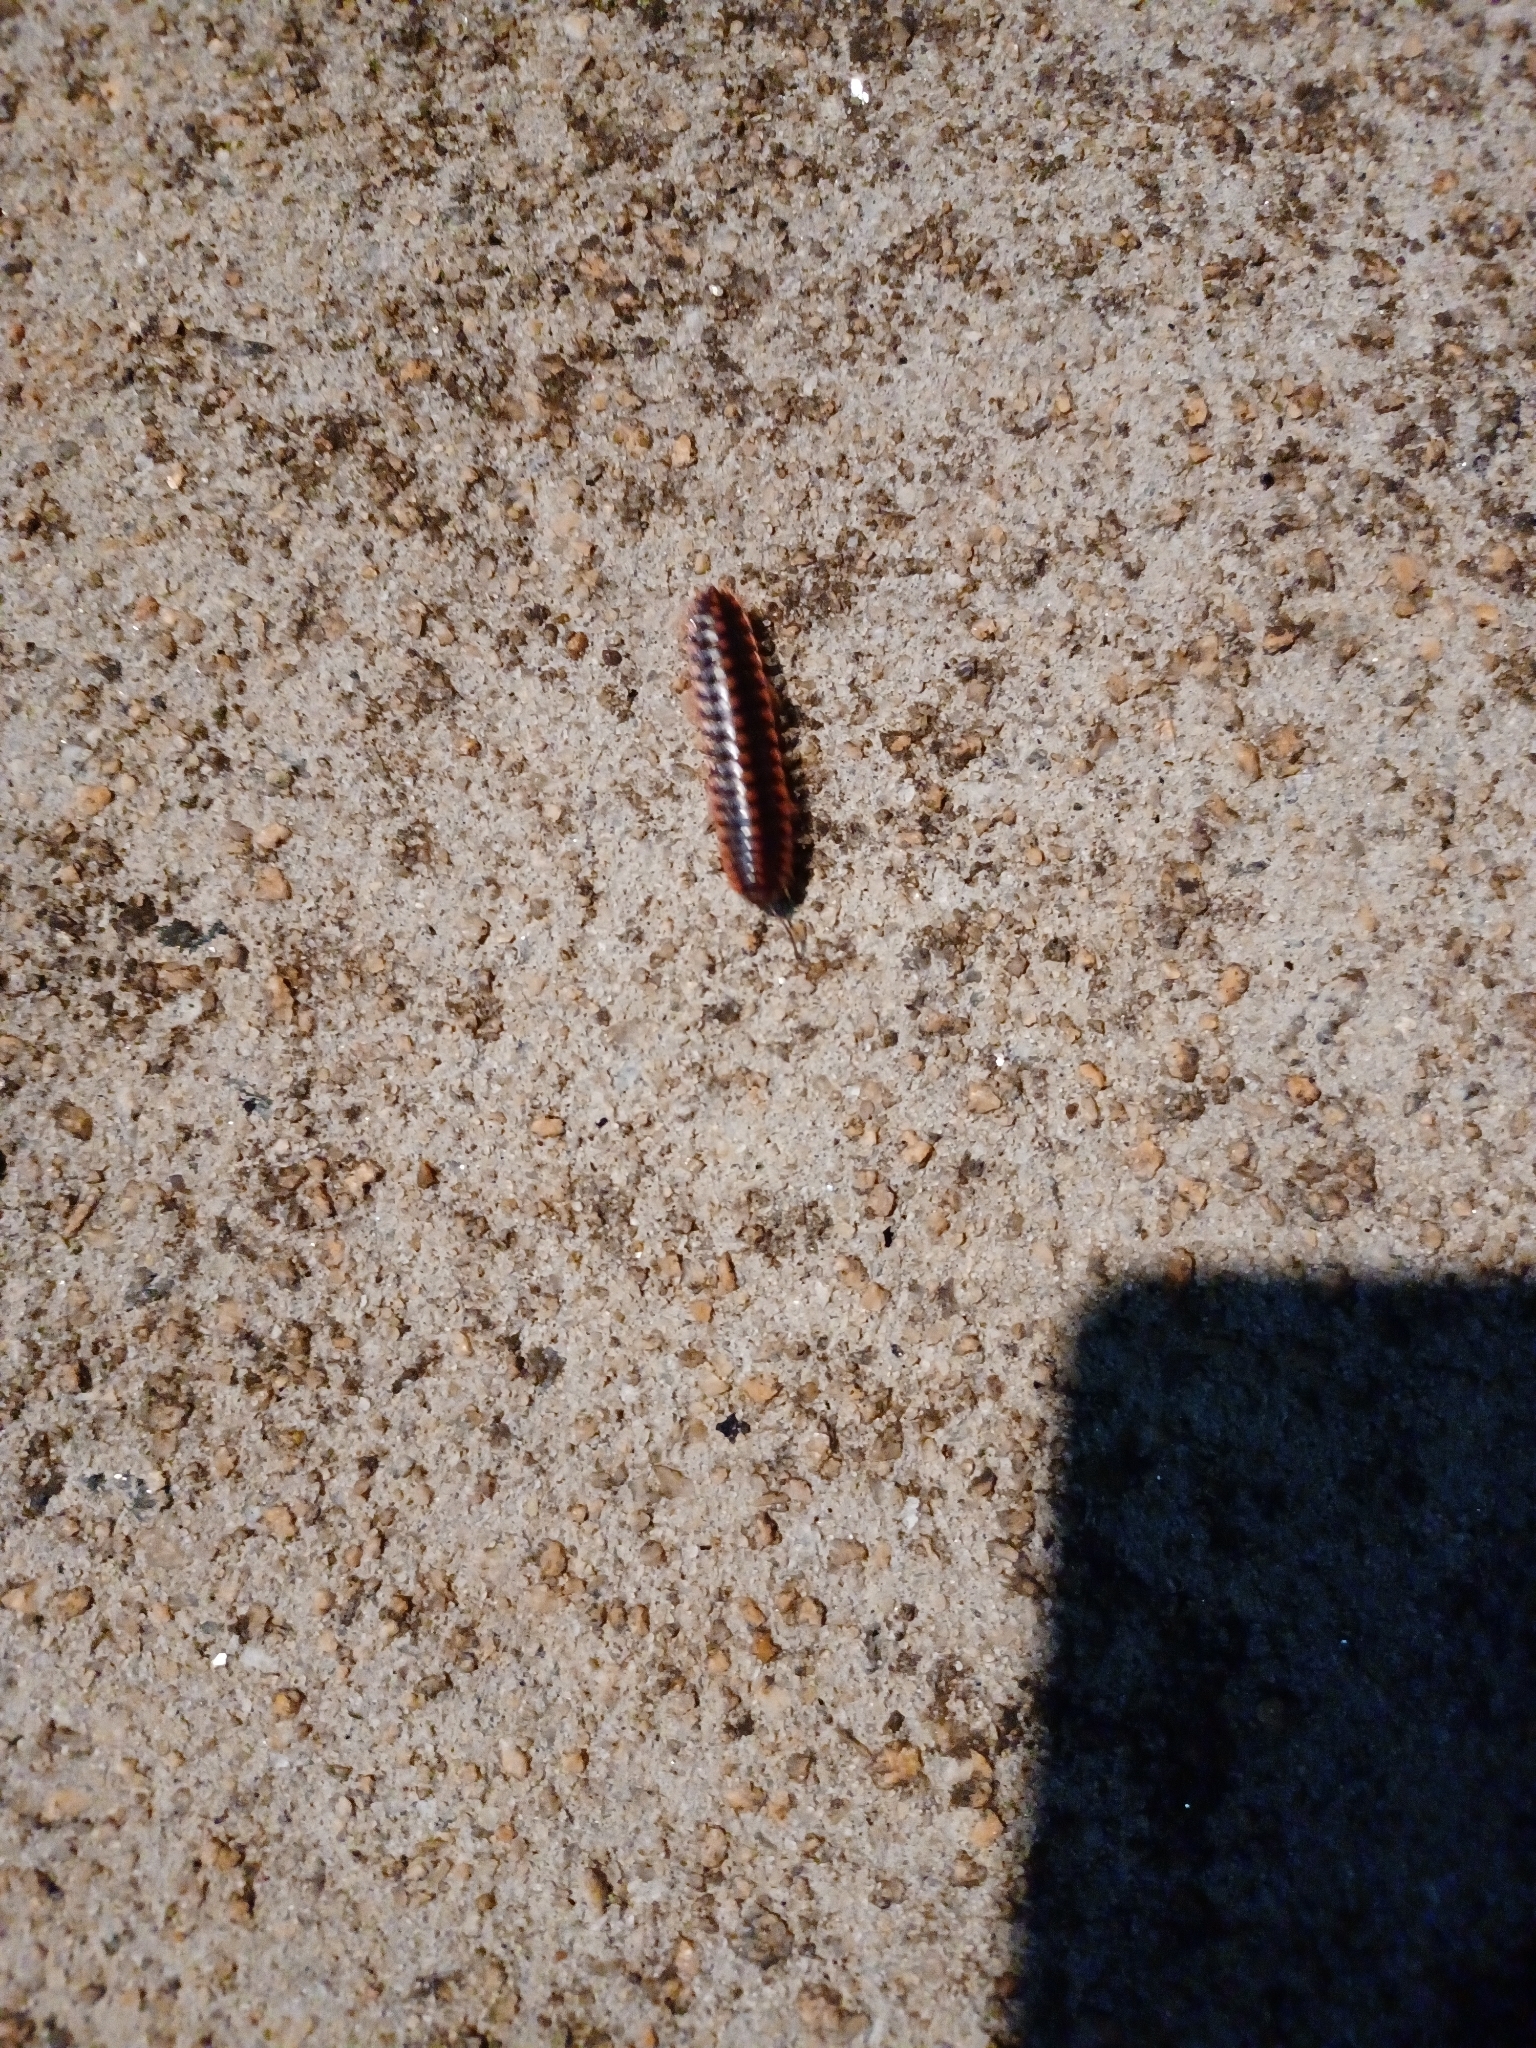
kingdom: Animalia
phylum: Arthropoda
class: Diplopoda
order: Polydesmida
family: Xystodesmidae
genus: Cherokia
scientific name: Cherokia georgiana
